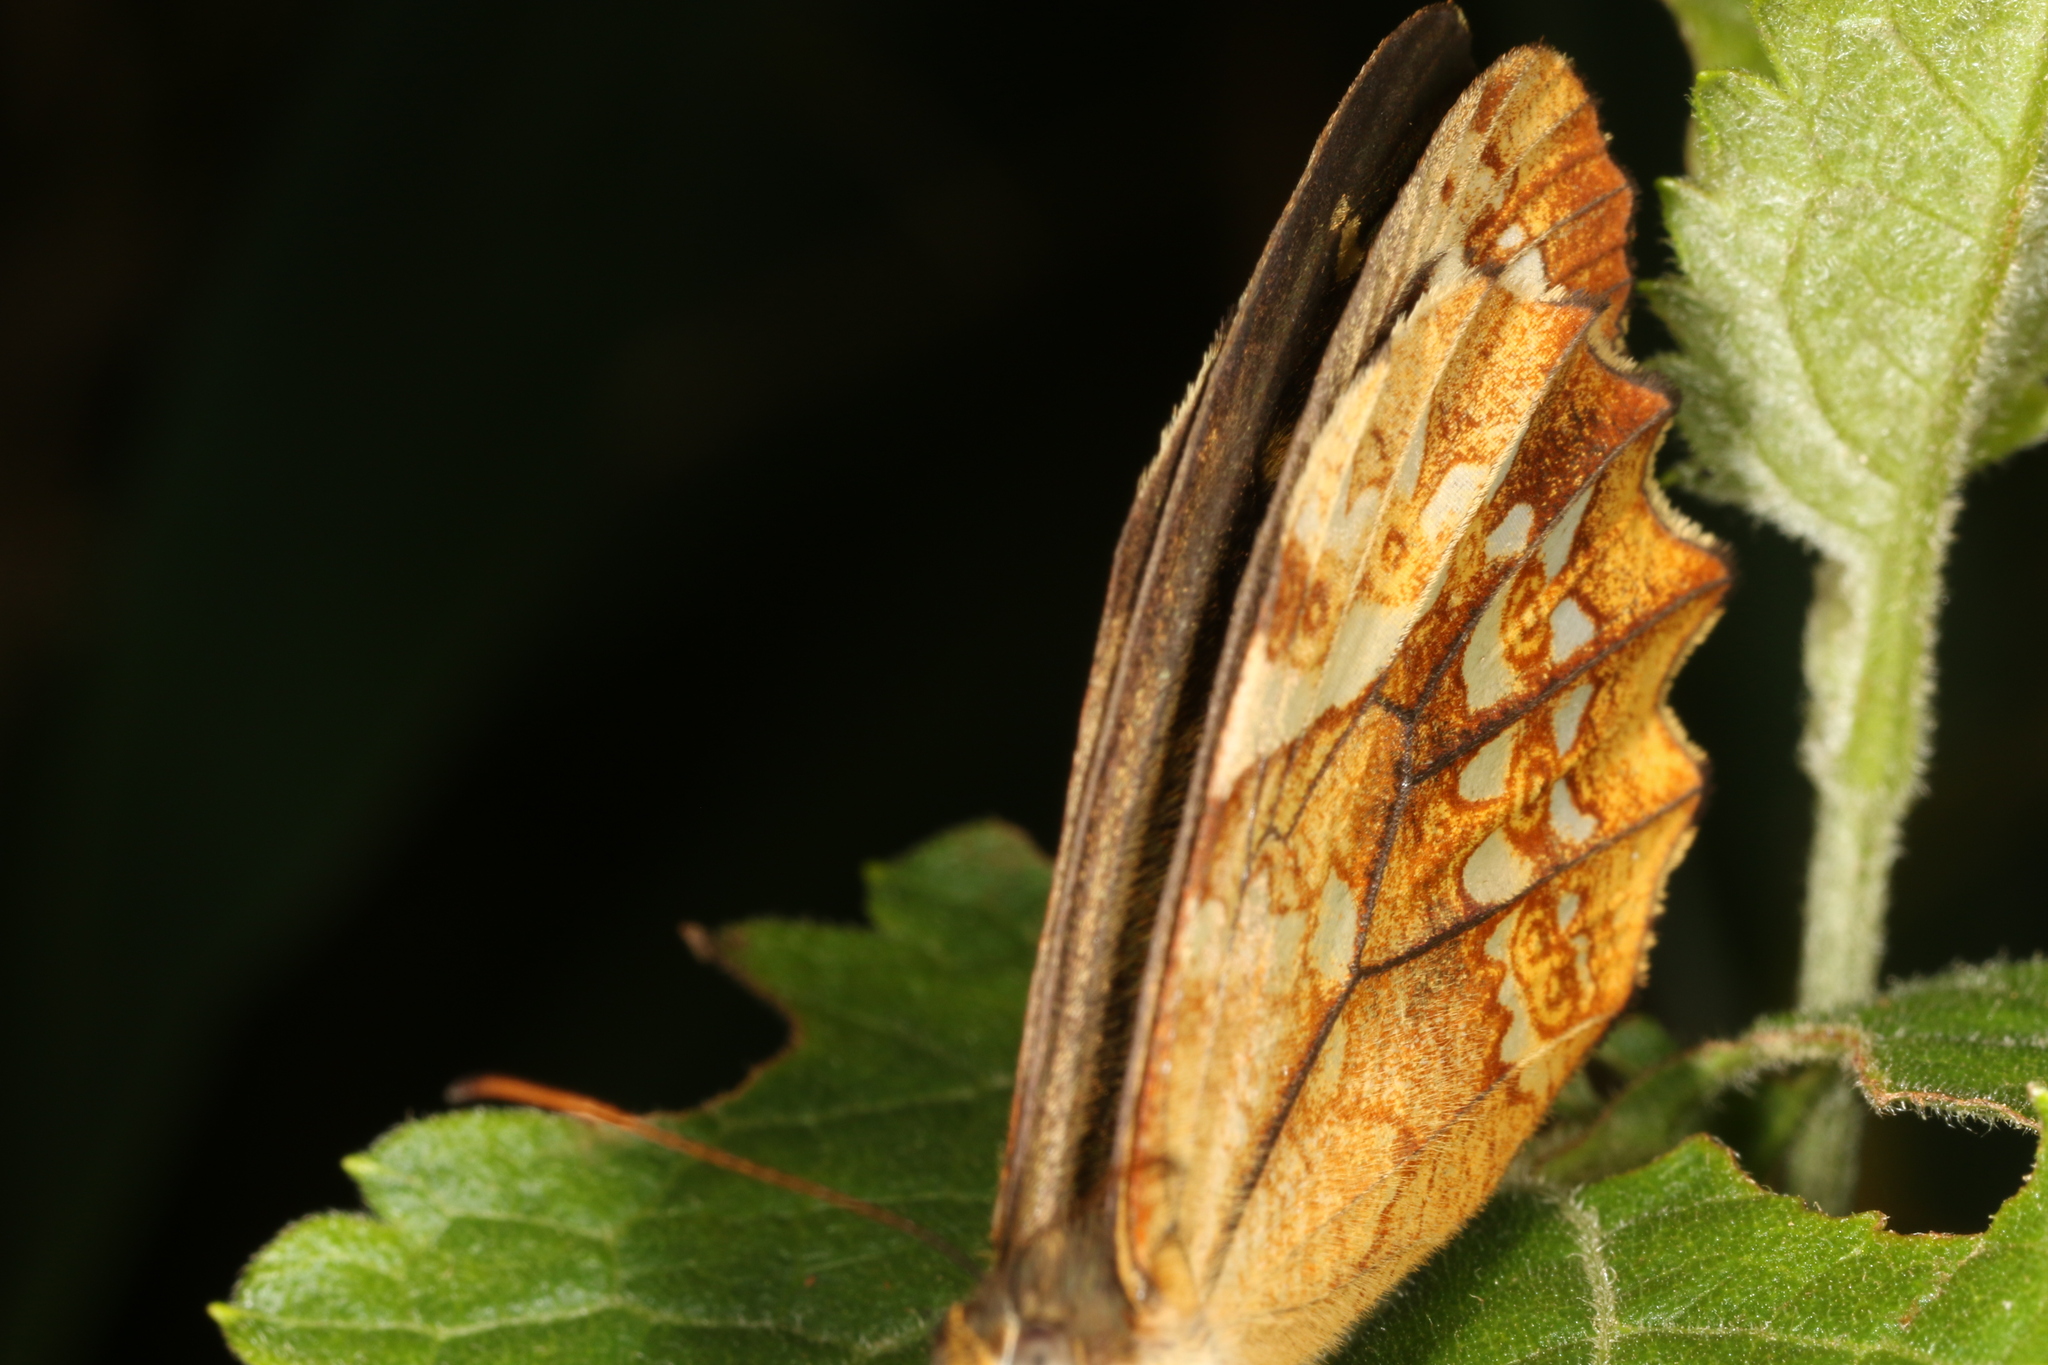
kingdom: Animalia
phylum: Arthropoda
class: Insecta
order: Lepidoptera
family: Nymphalidae
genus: Foetterleia
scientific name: Foetterleia schreineri
